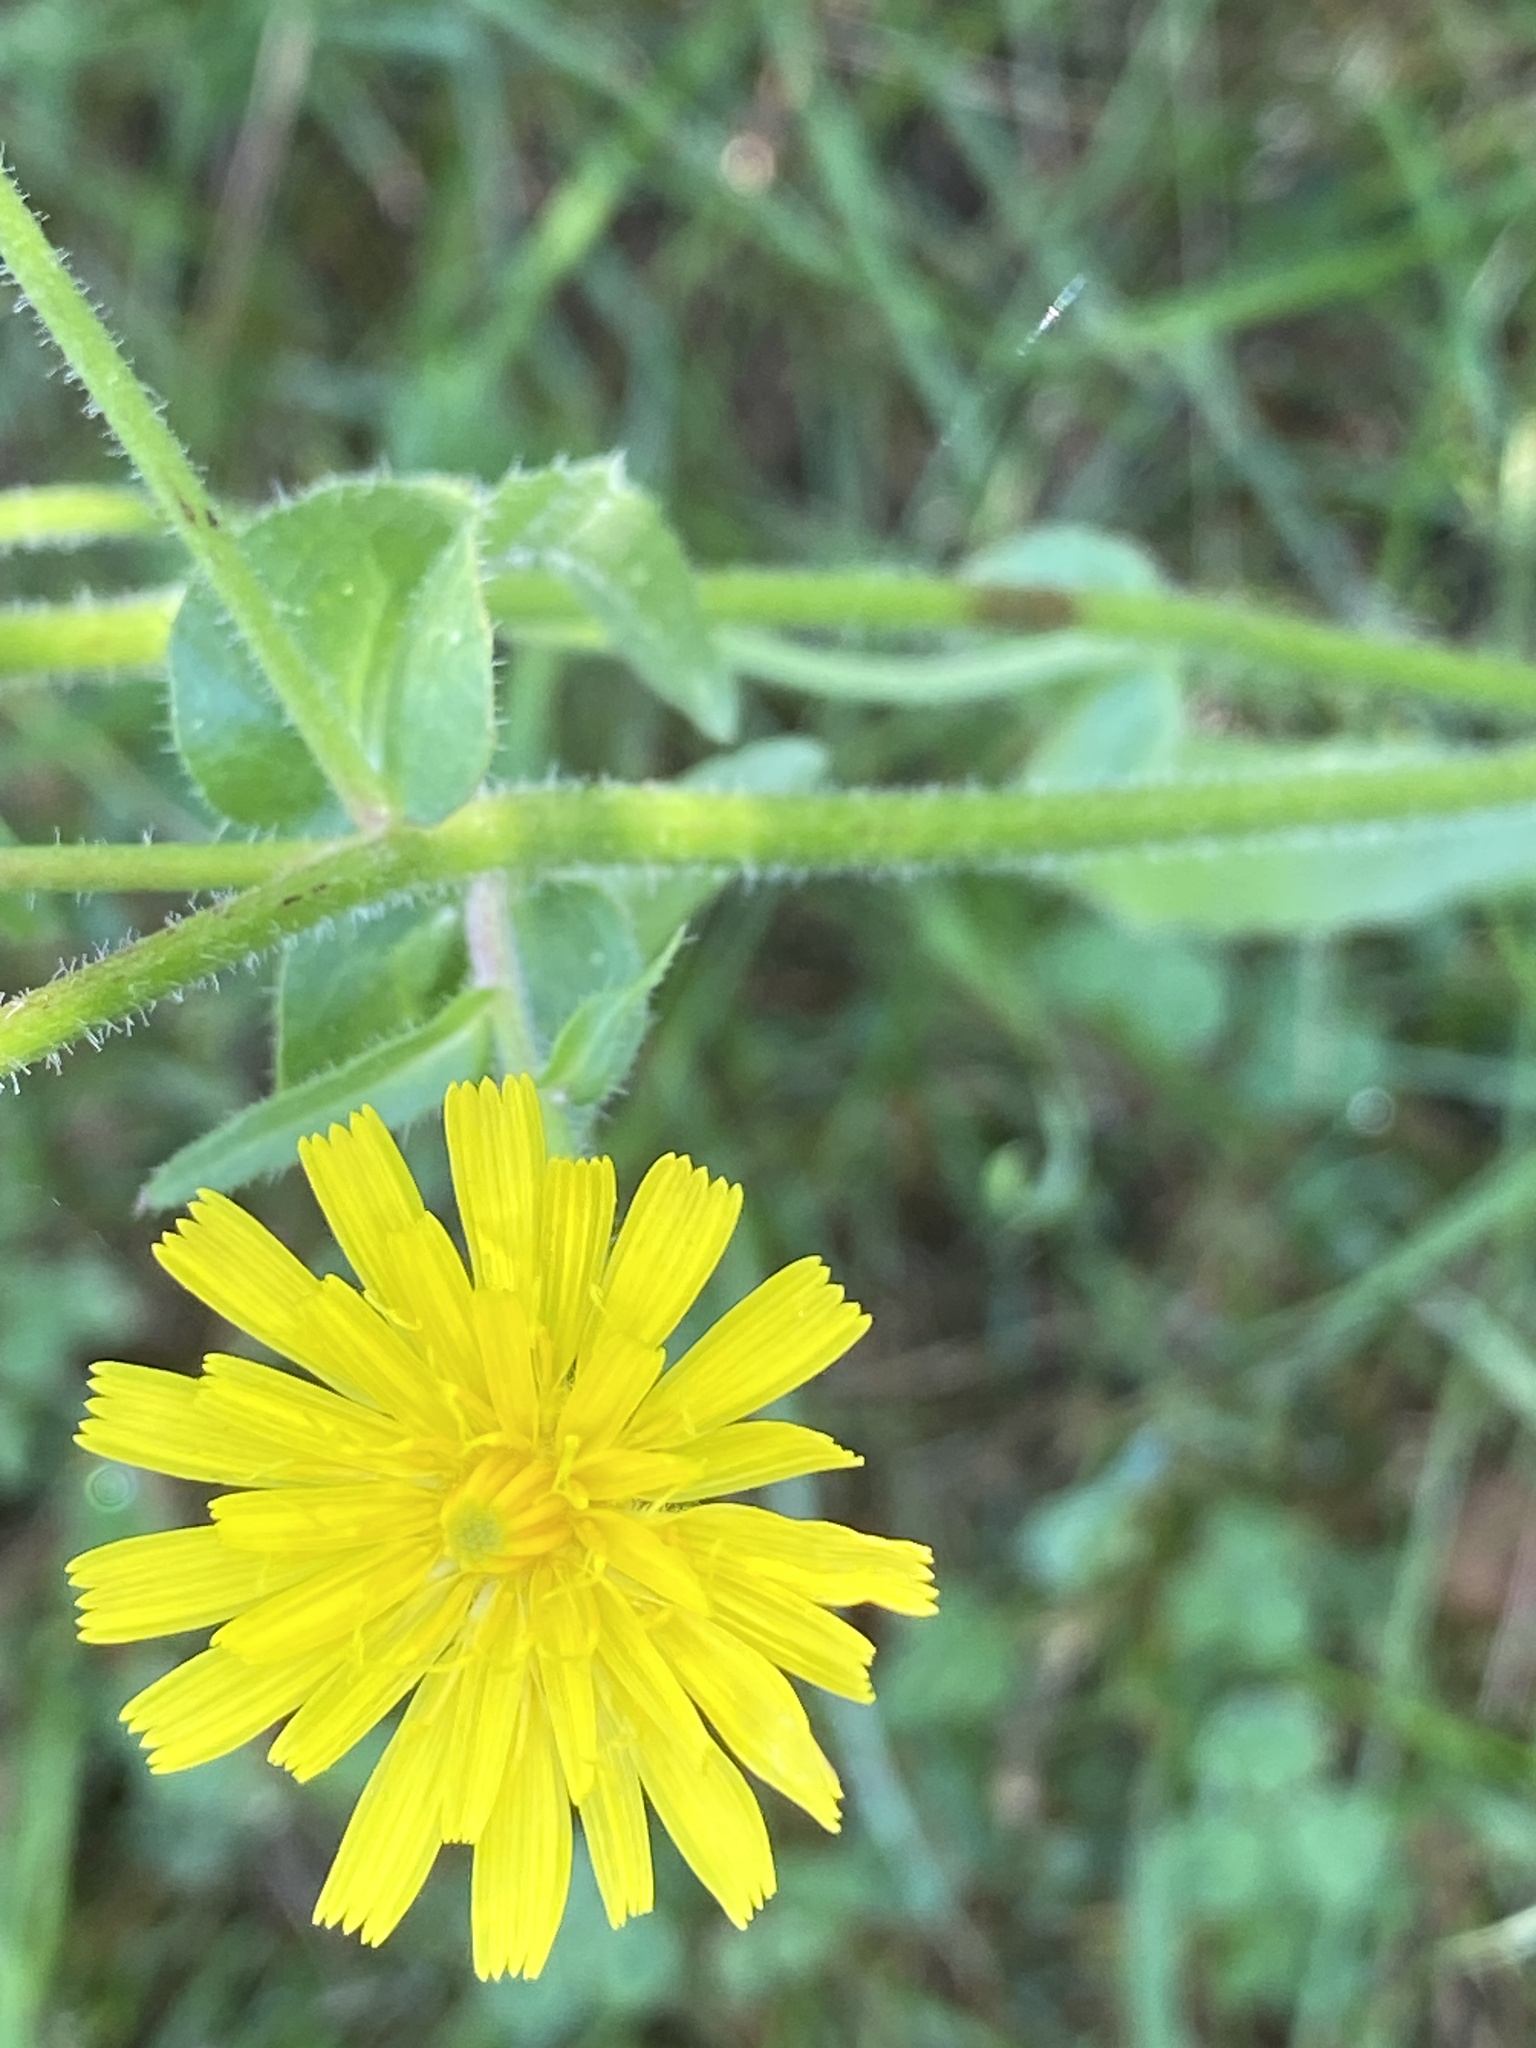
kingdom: Plantae
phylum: Tracheophyta
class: Magnoliopsida
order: Asterales
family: Asteraceae
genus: Picris
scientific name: Picris hieracioides
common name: Hawkweed oxtongue
